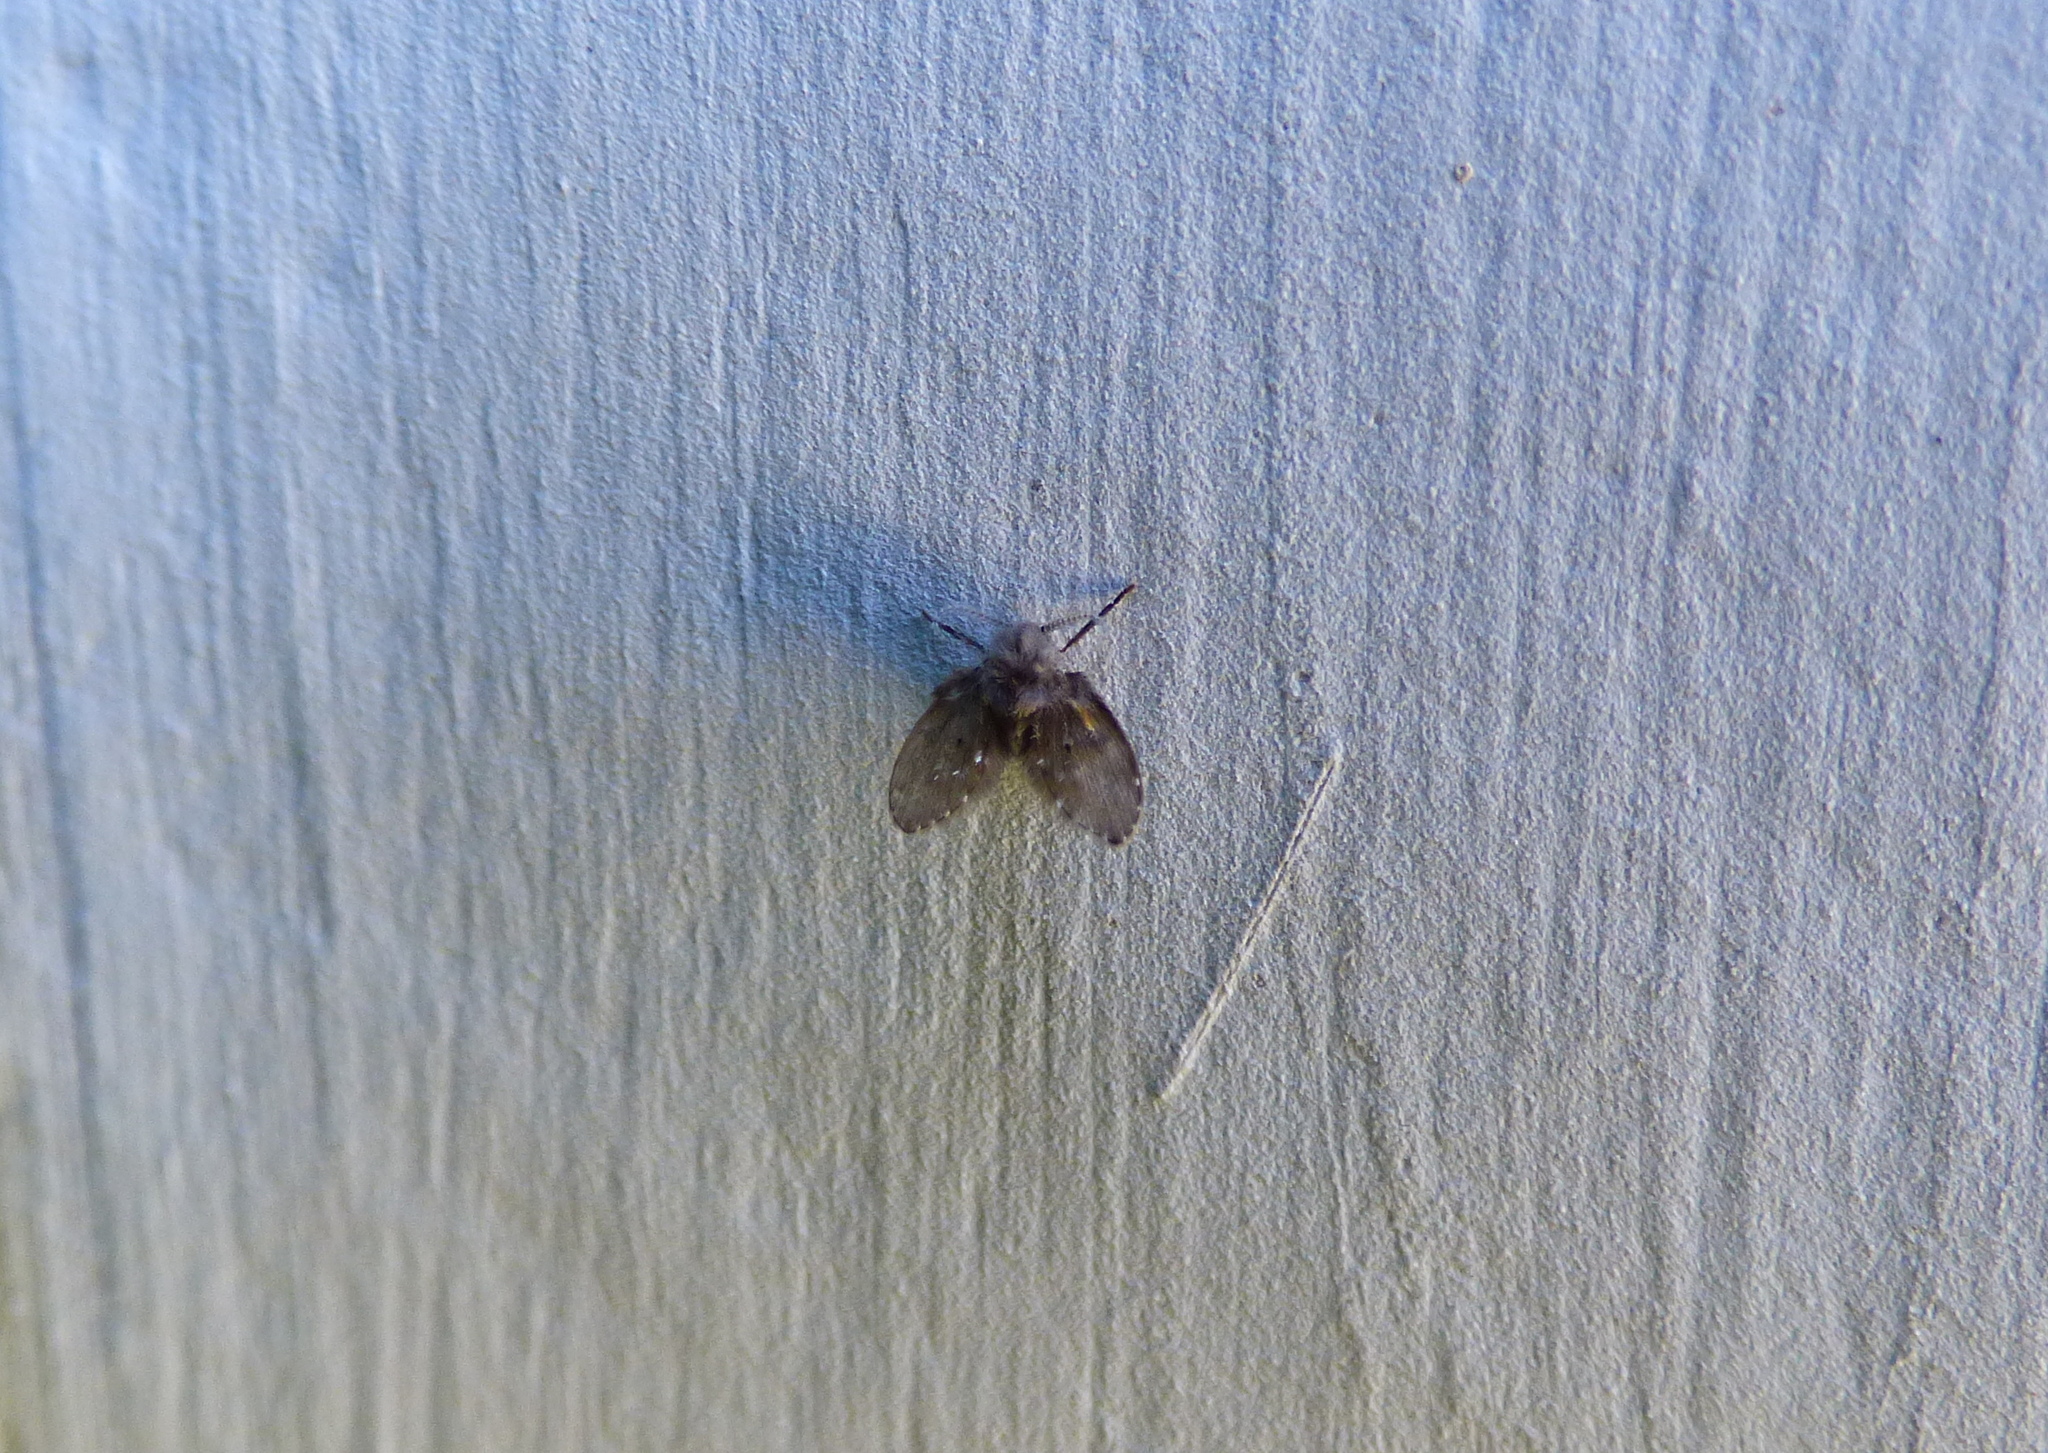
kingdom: Animalia
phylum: Arthropoda
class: Insecta
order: Diptera
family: Psychodidae
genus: Clogmia
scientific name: Clogmia albipunctatus
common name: White-spotted moth fly
